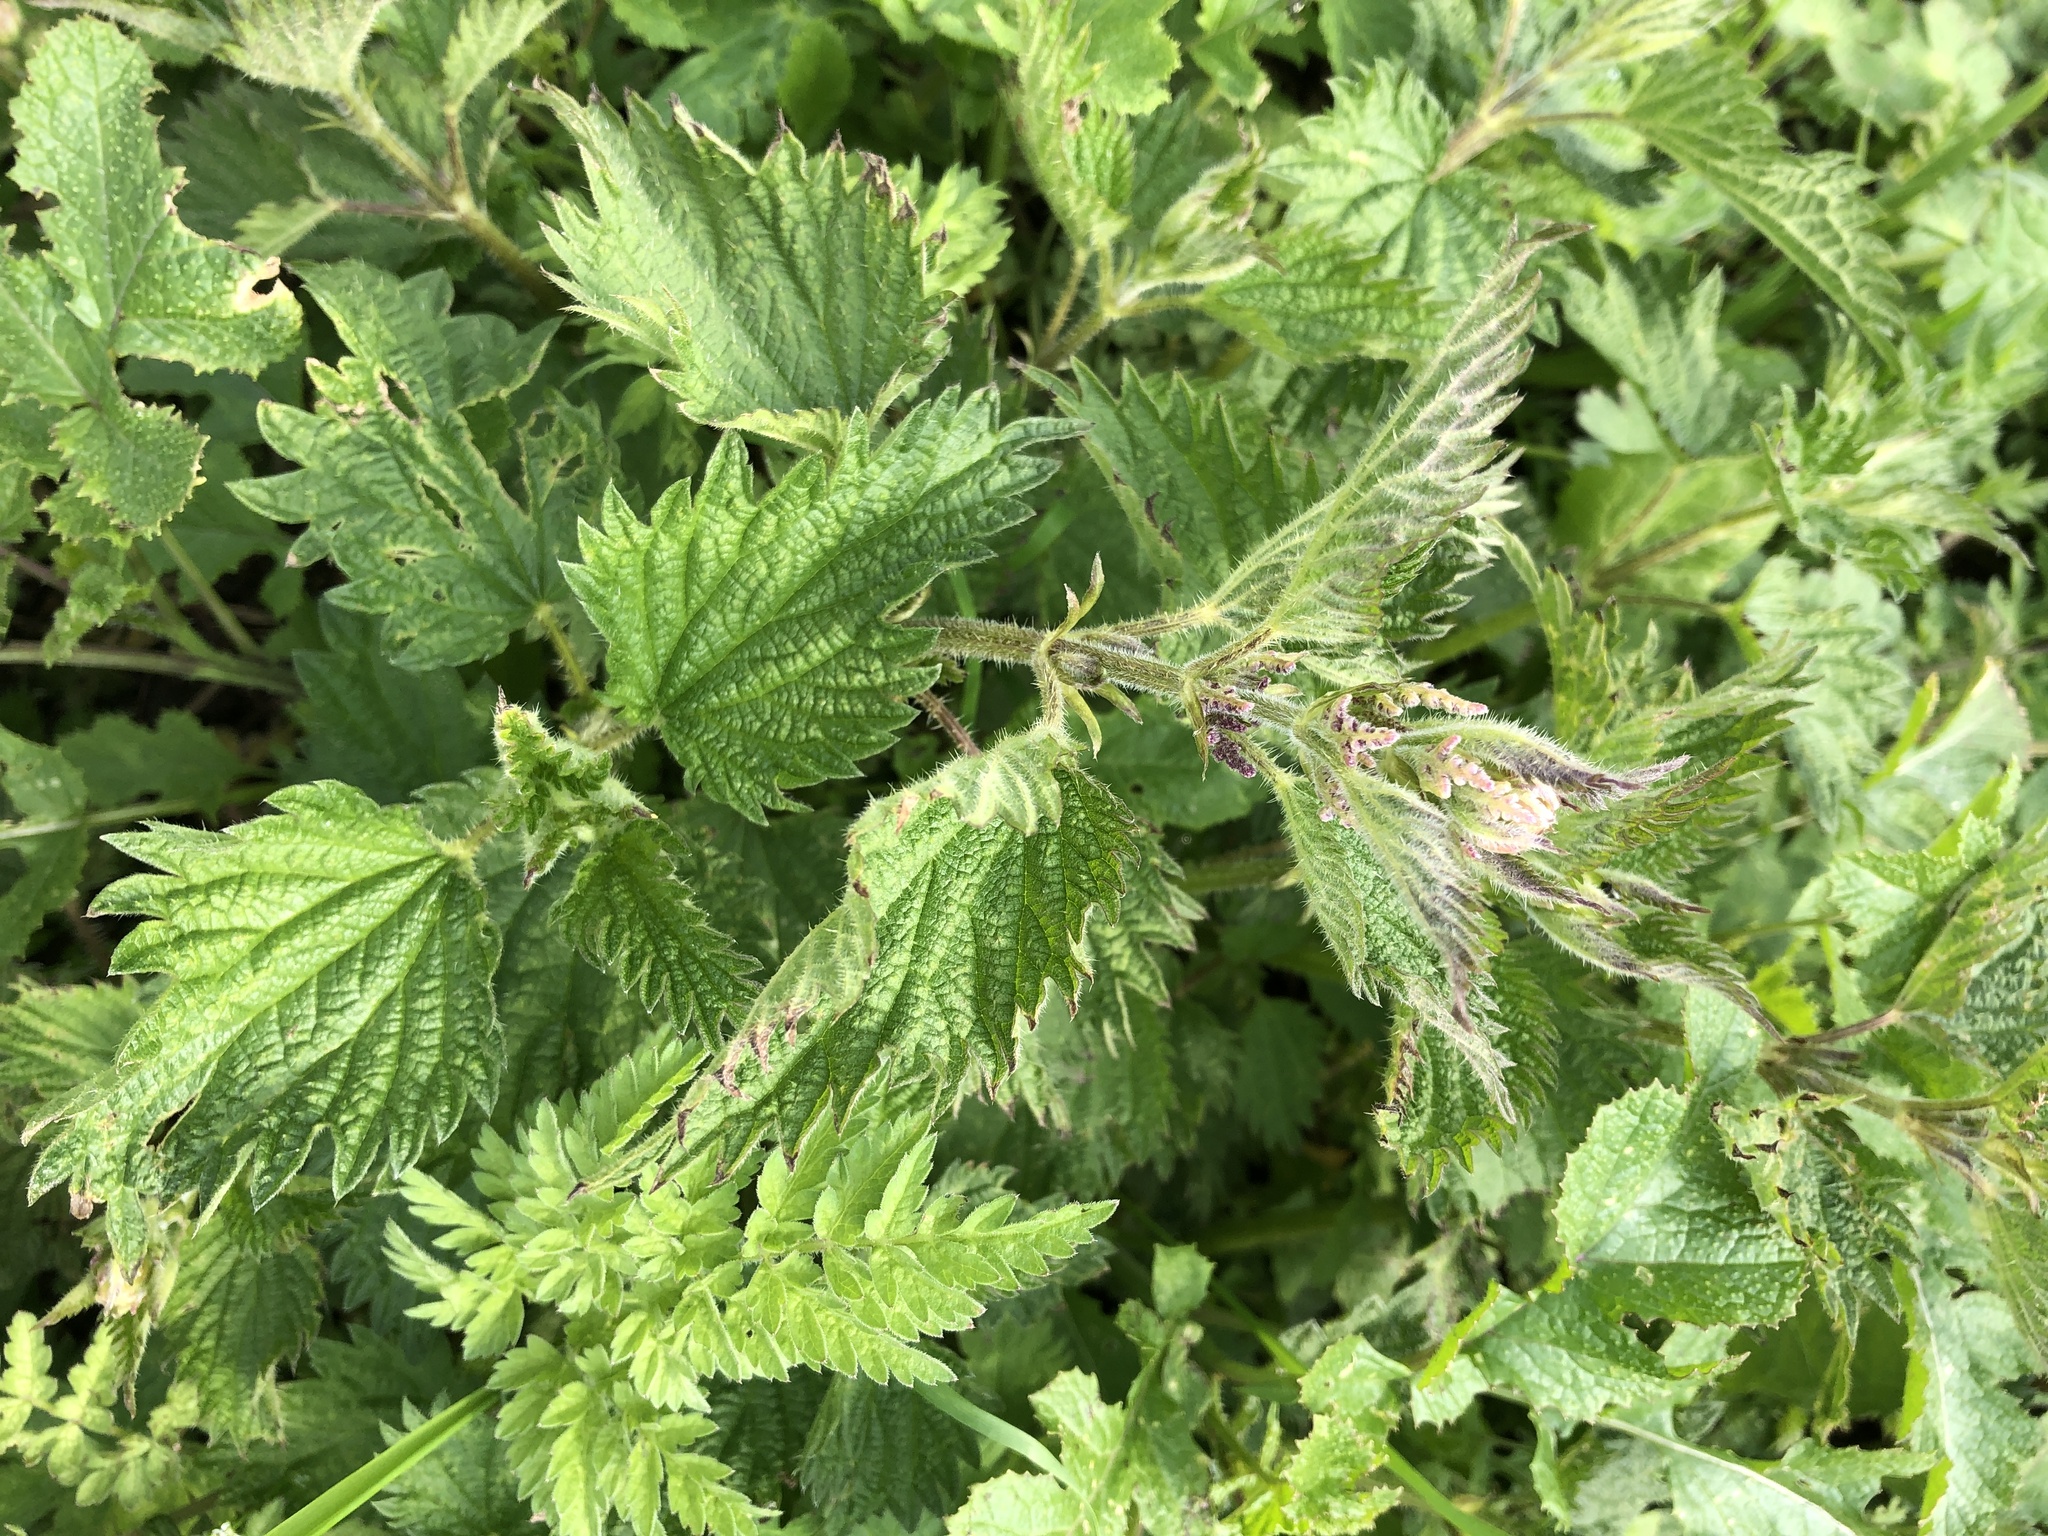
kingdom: Plantae
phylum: Tracheophyta
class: Magnoliopsida
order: Rosales
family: Urticaceae
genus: Urtica
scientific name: Urtica dioica
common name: Common nettle
